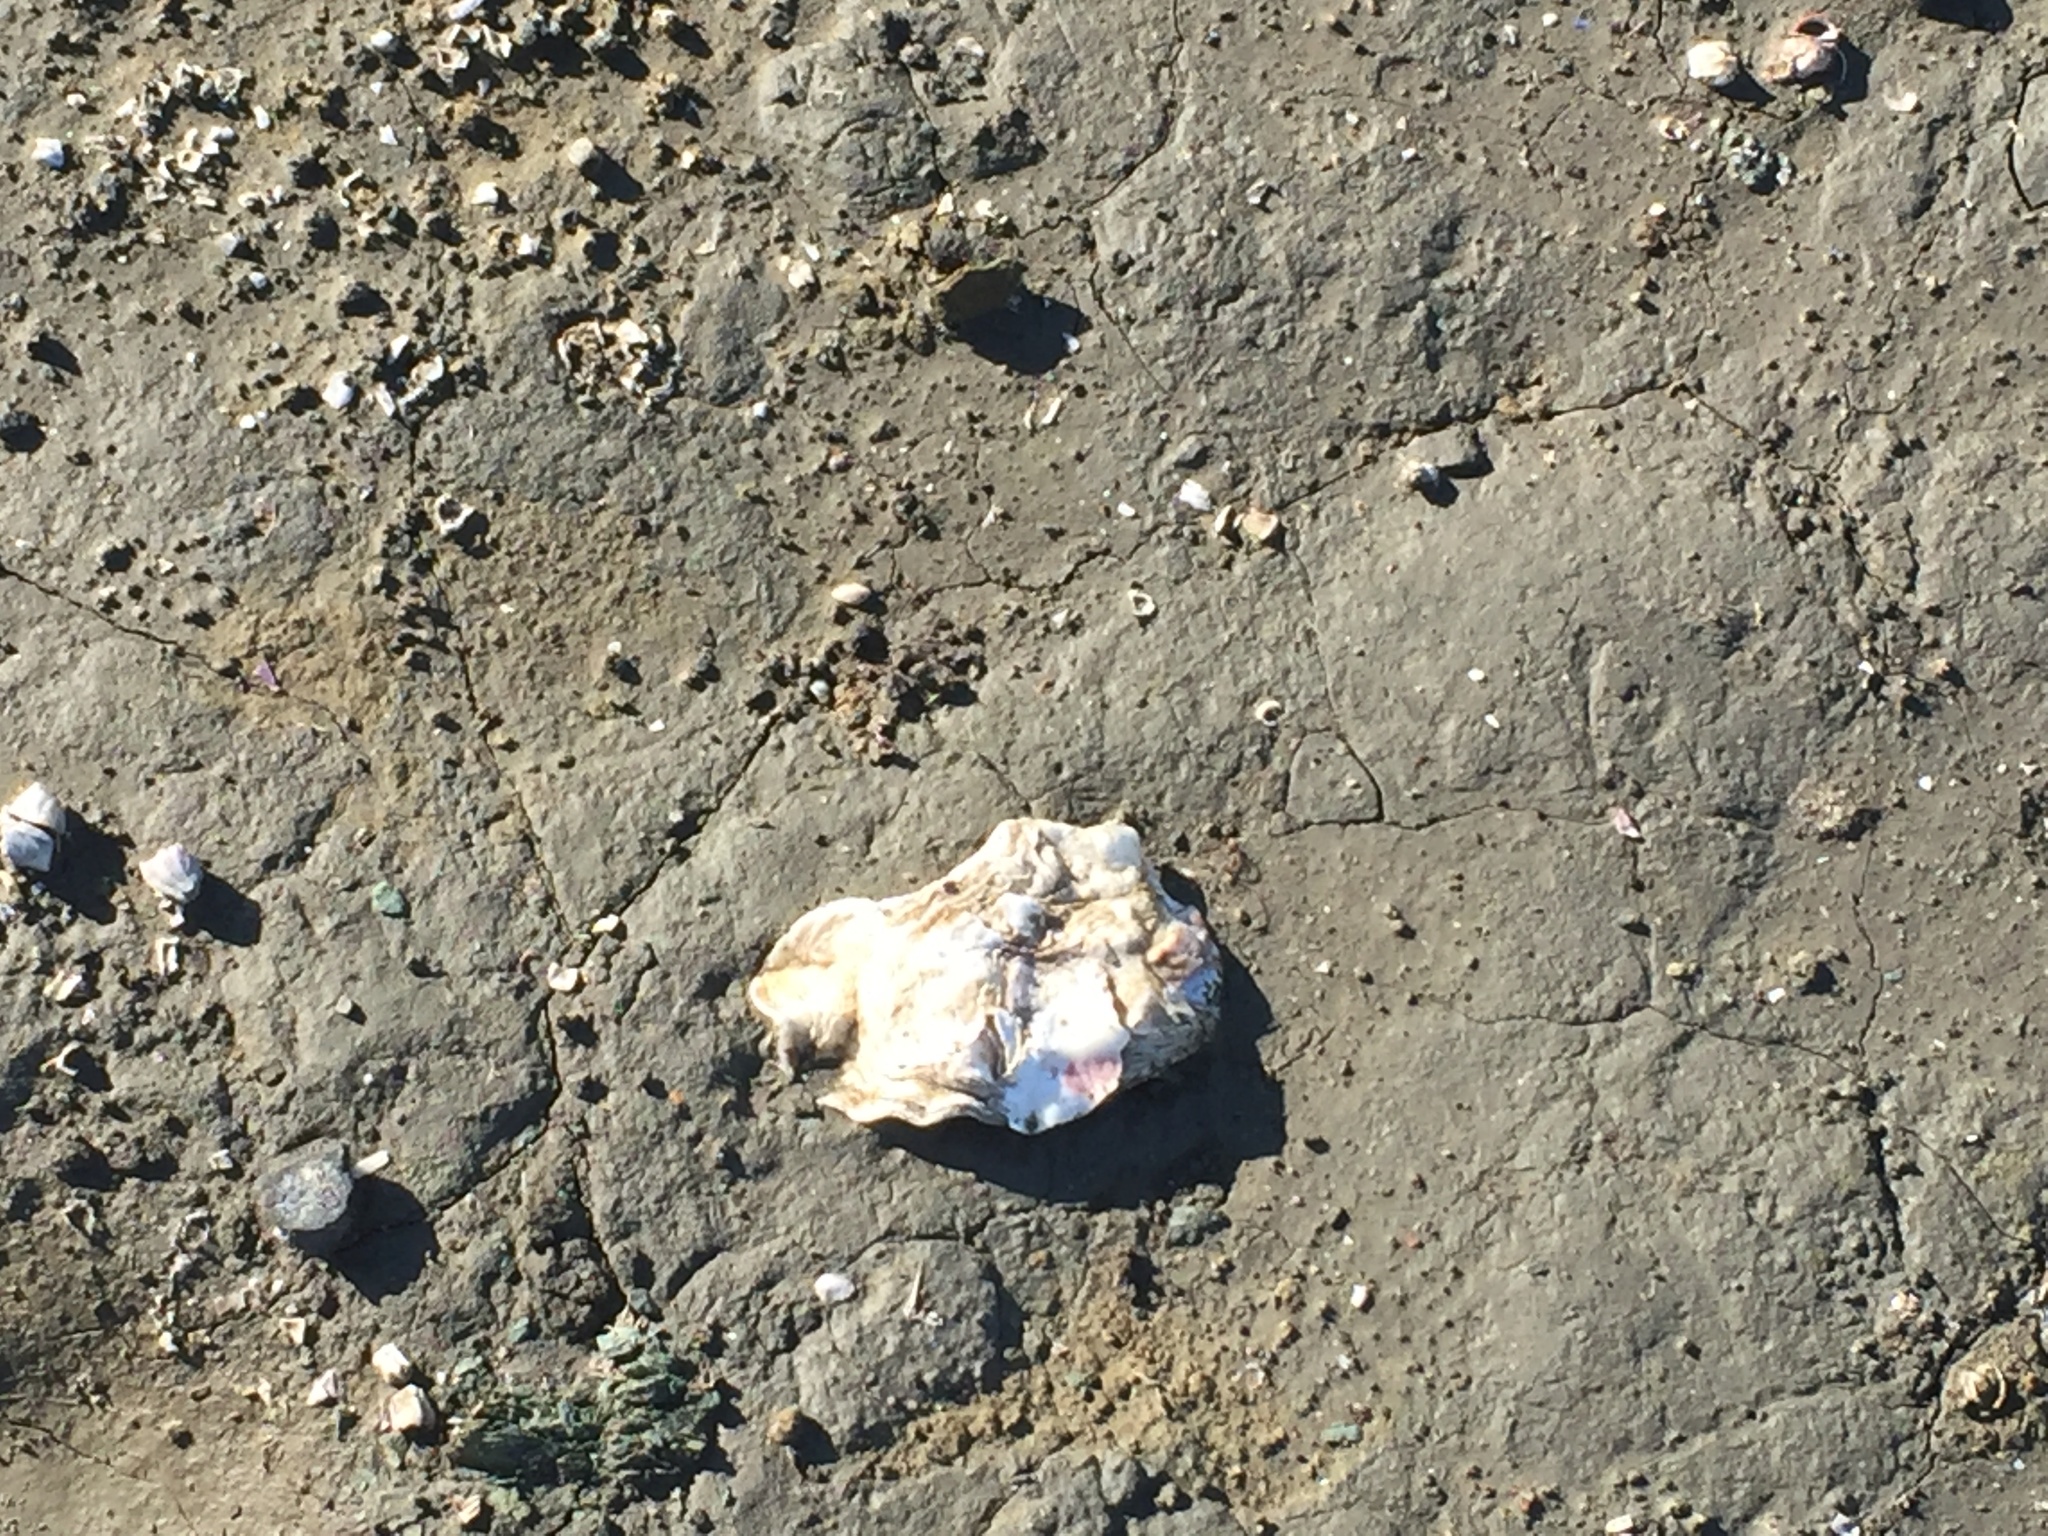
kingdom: Animalia
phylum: Mollusca
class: Bivalvia
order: Ostreida
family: Ostreidae
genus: Magallana
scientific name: Magallana gigas
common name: Pacific oyster
